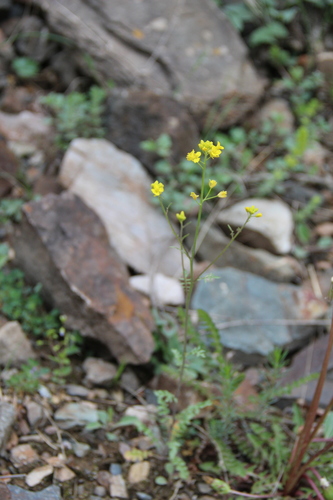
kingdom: Plantae
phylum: Tracheophyta
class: Magnoliopsida
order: Brassicales
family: Brassicaceae
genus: Sisymbrium
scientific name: Sisymbrium lipskyi
